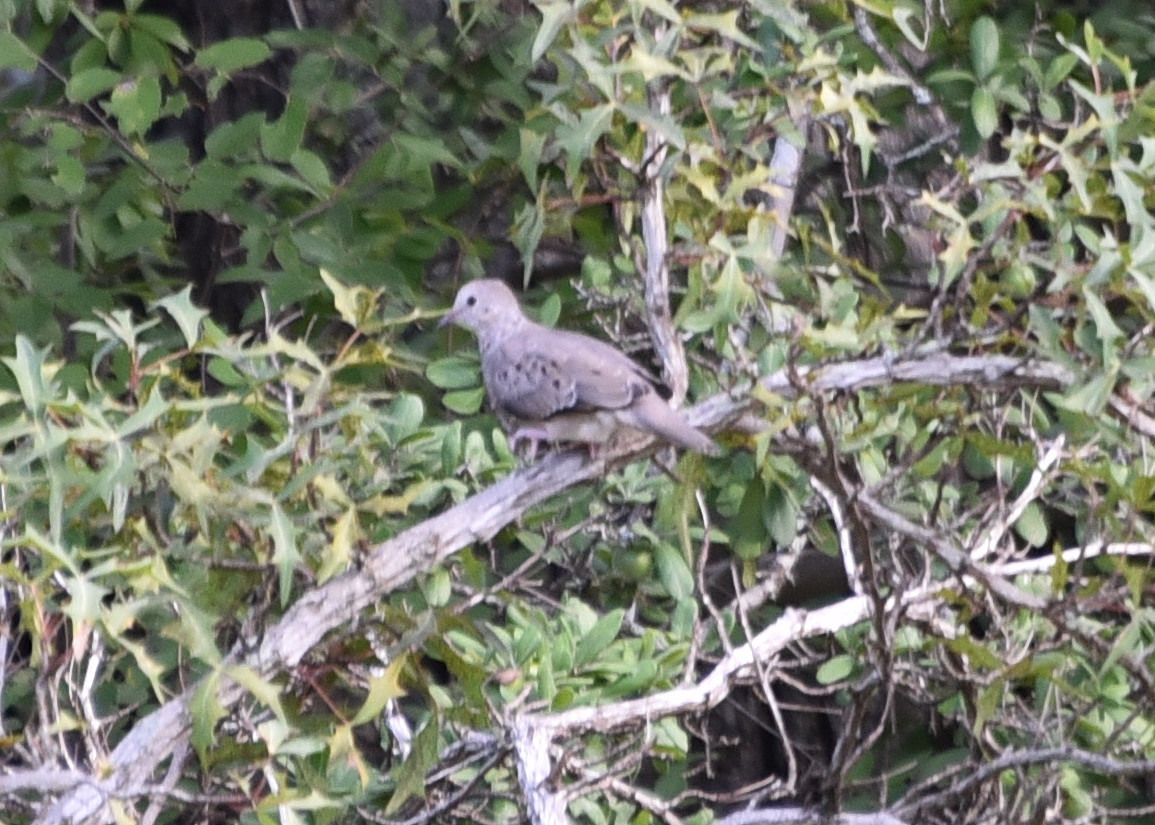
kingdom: Animalia
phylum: Chordata
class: Aves
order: Columbiformes
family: Columbidae
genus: Columbina
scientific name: Columbina passerina
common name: Common ground-dove
